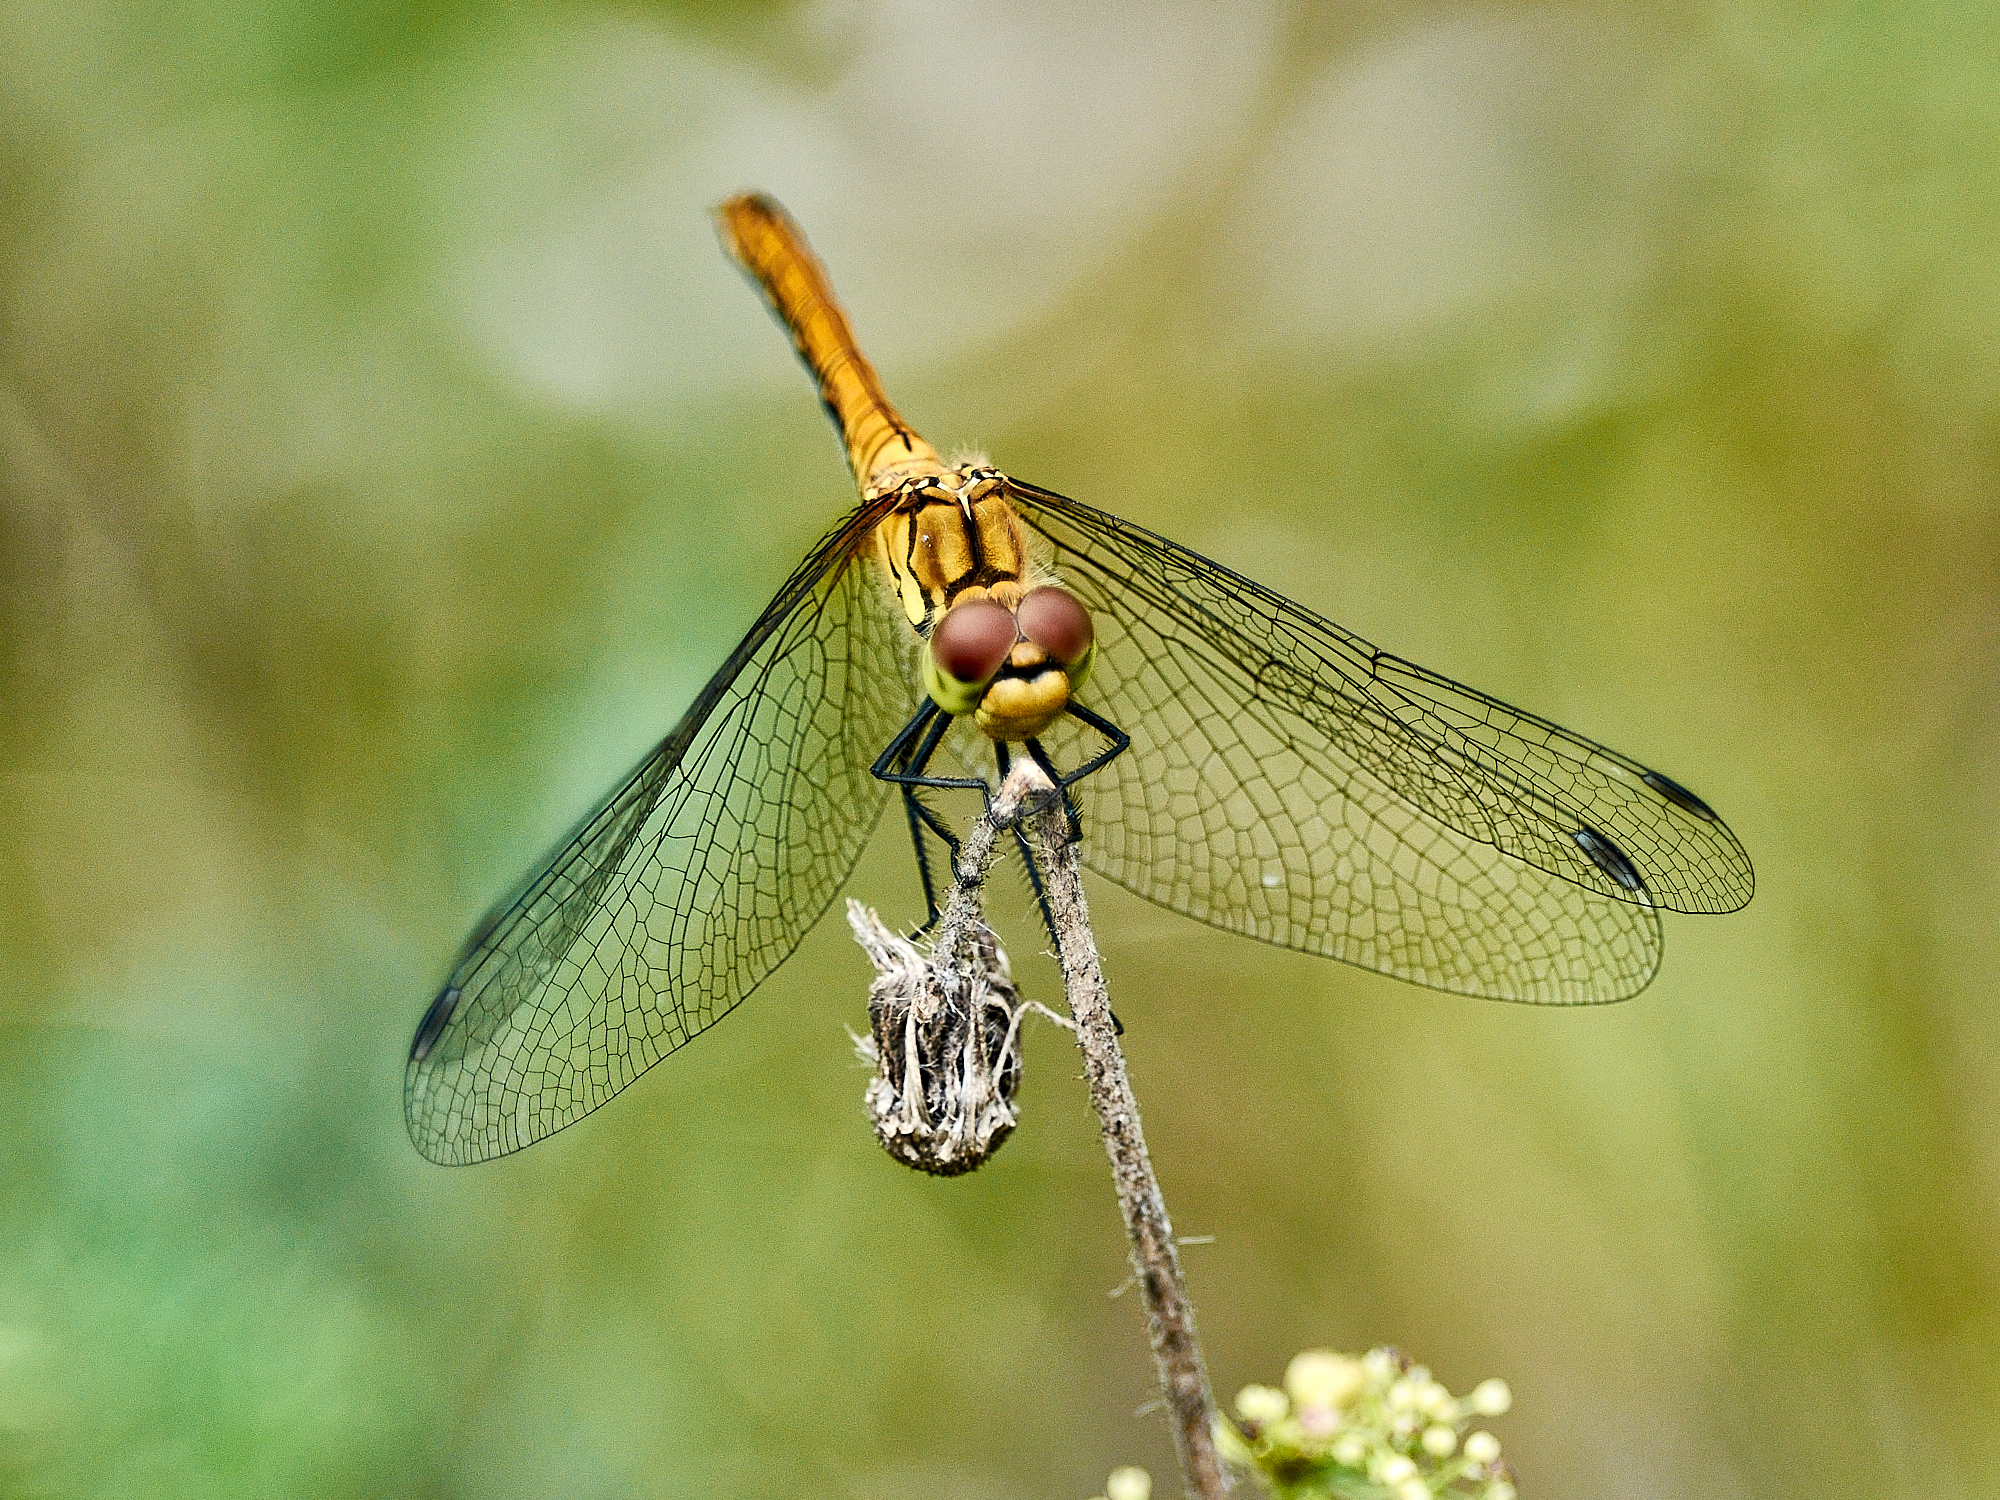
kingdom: Animalia
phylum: Arthropoda
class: Insecta
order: Odonata
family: Libellulidae
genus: Sympetrum
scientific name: Sympetrum sanguineum
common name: Ruddy darter
